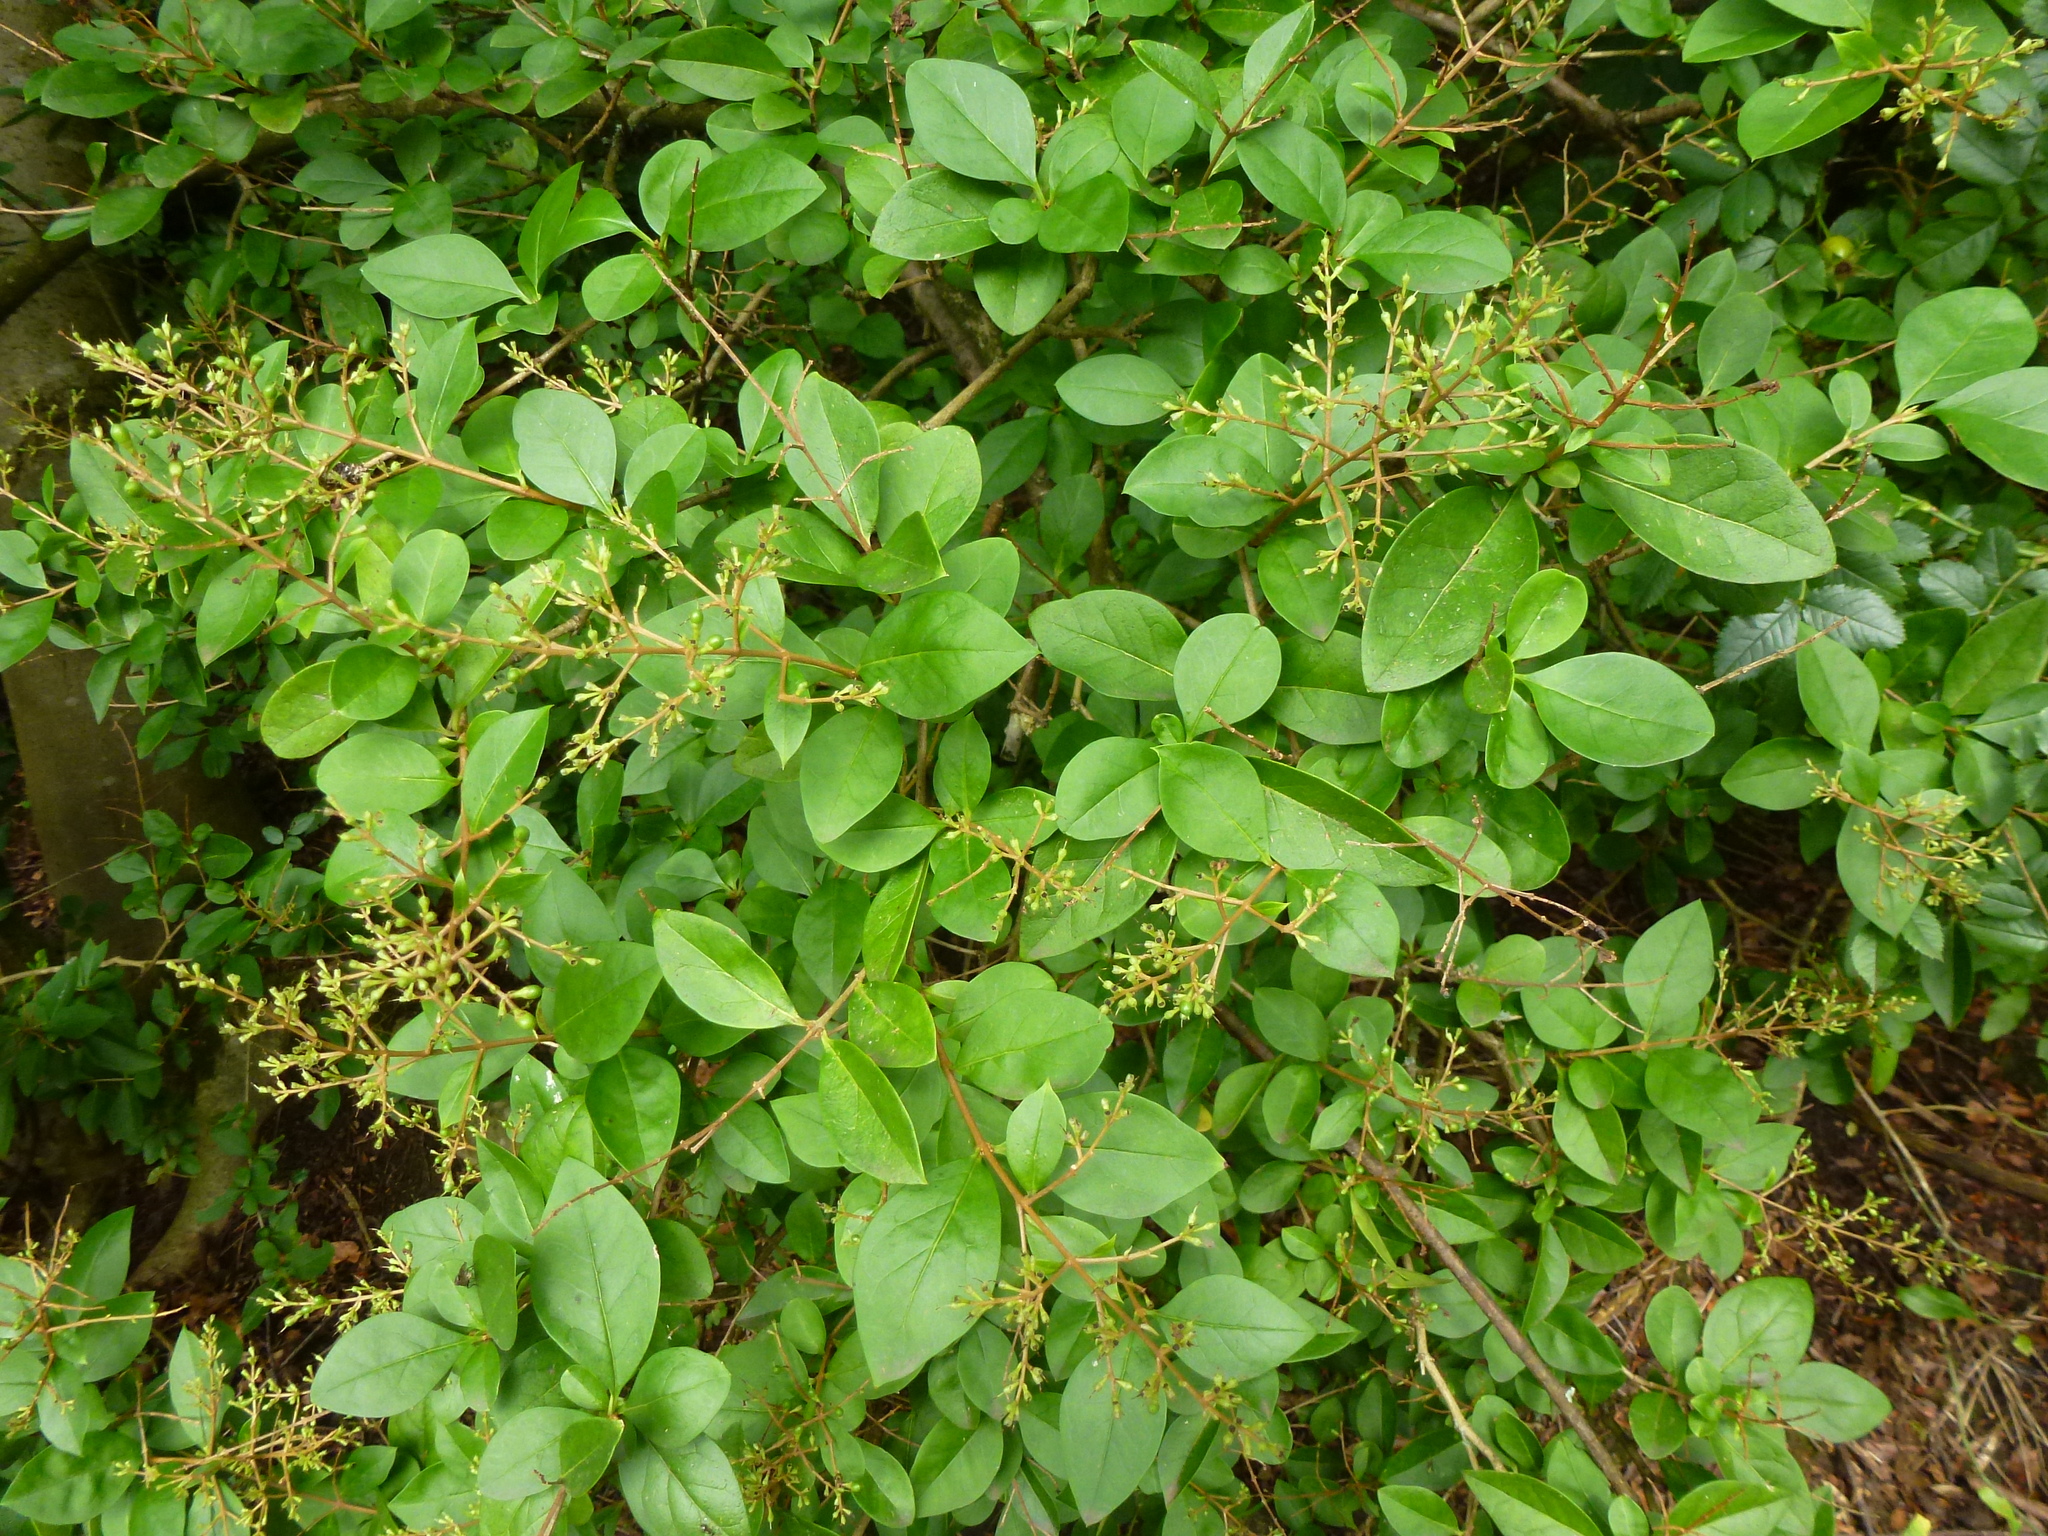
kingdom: Plantae
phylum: Tracheophyta
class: Magnoliopsida
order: Lamiales
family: Oleaceae
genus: Ligustrum
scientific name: Ligustrum ovalifolium
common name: California privet
